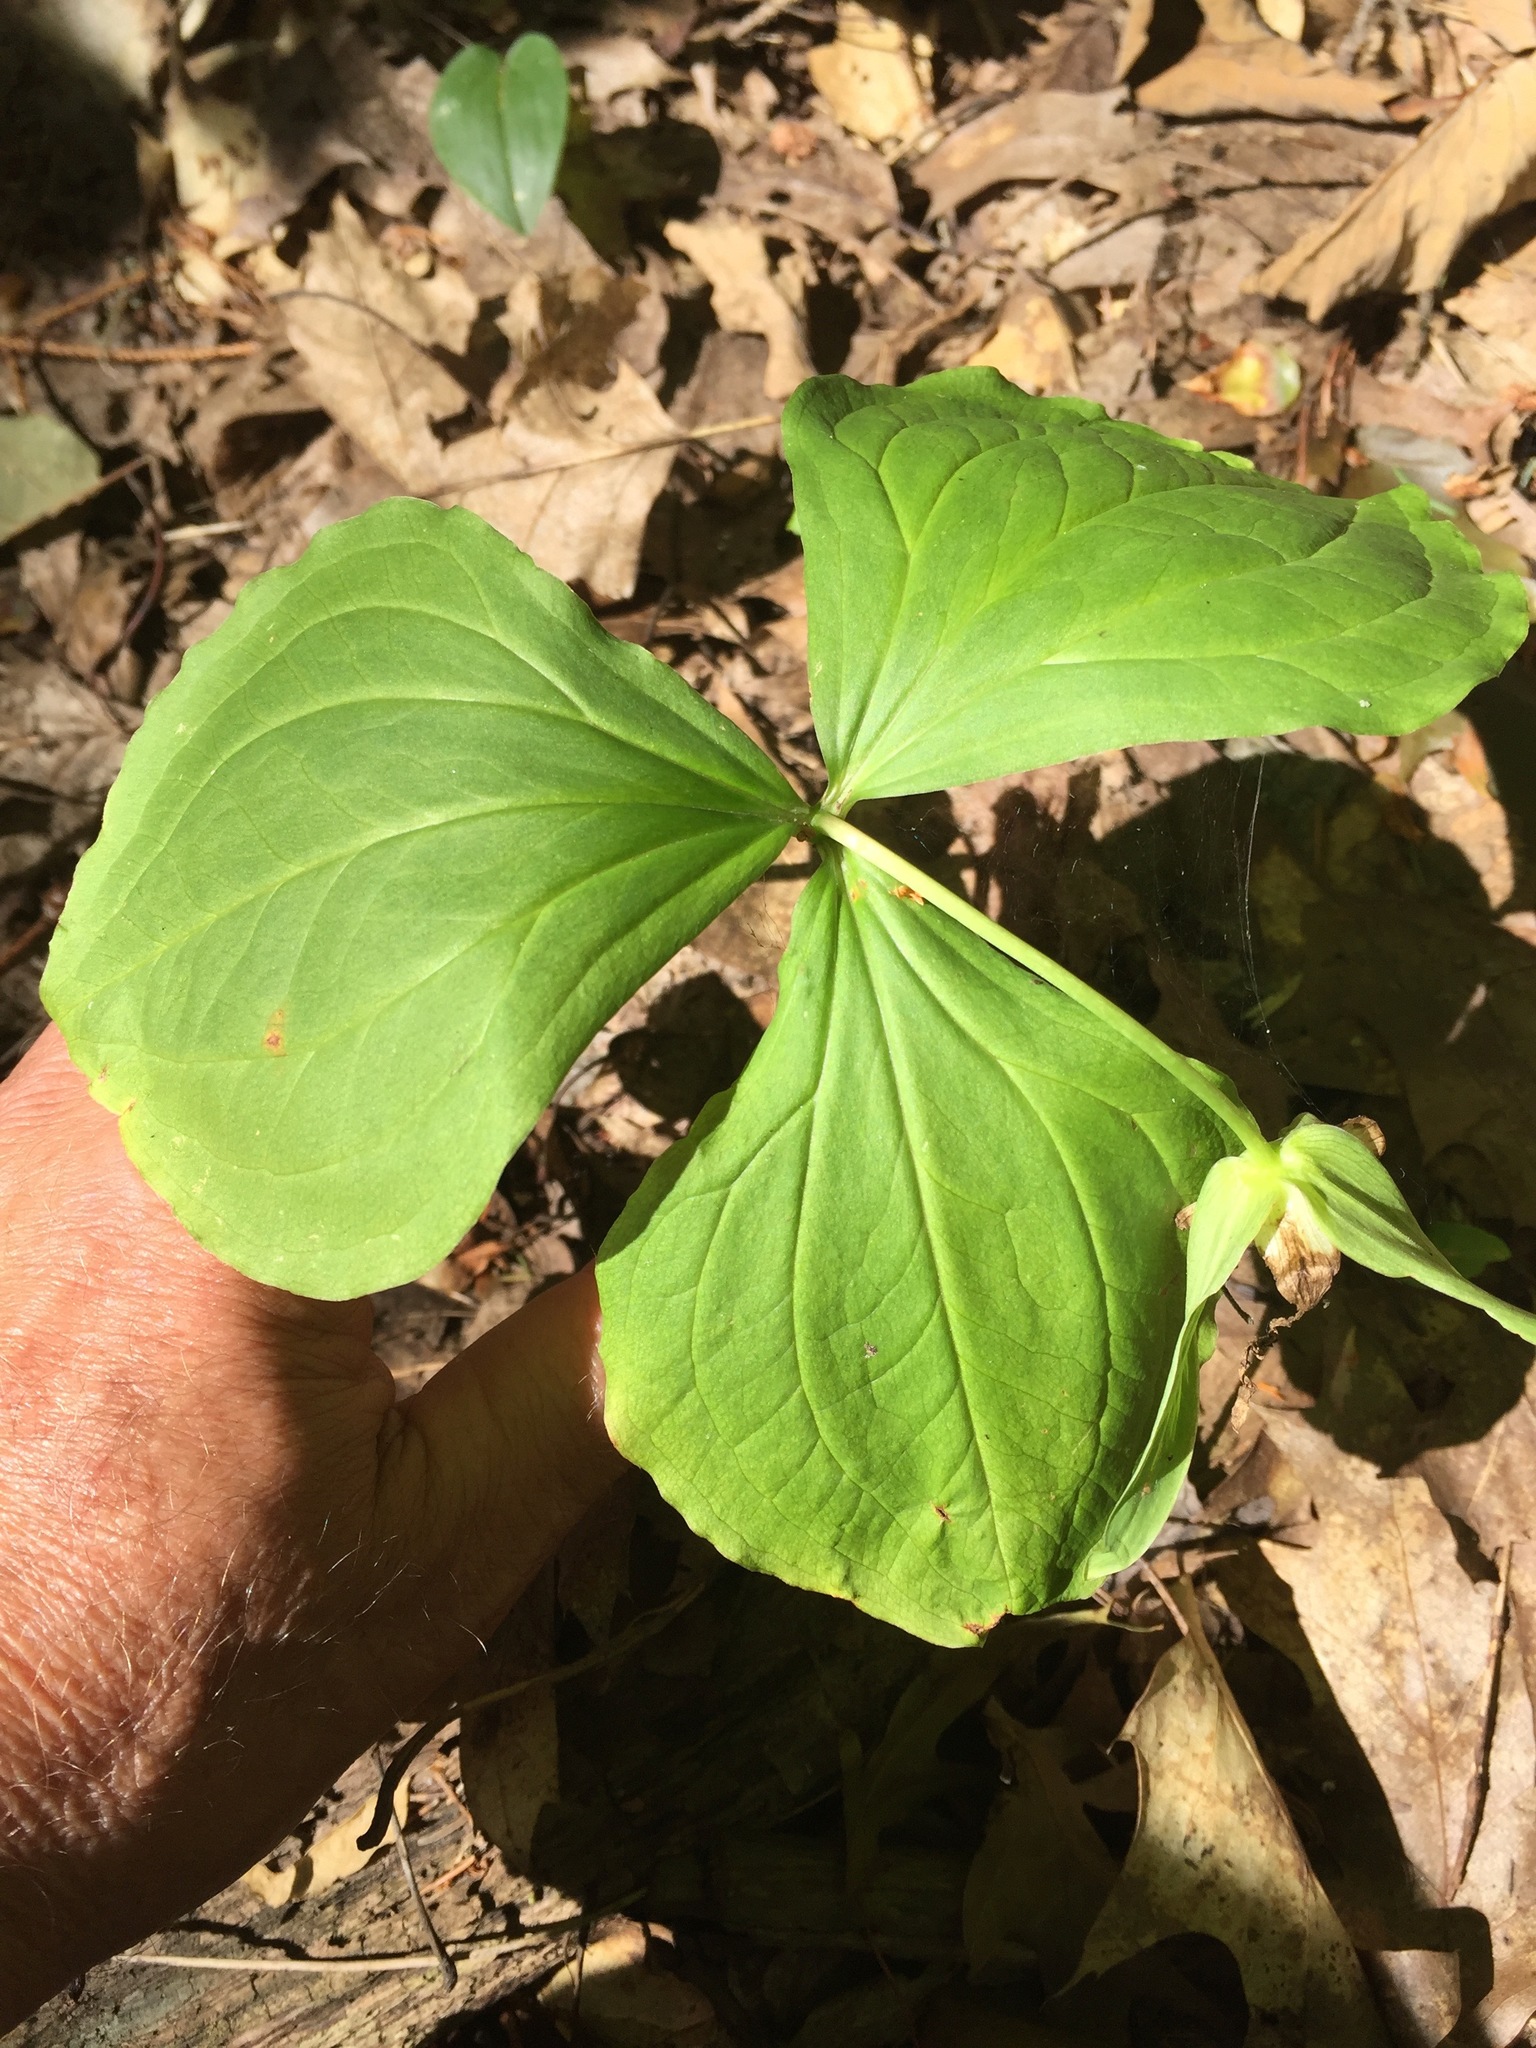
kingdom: Plantae
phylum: Tracheophyta
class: Liliopsida
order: Liliales
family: Melanthiaceae
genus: Trillium
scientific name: Trillium grandiflorum
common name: Great white trillium
